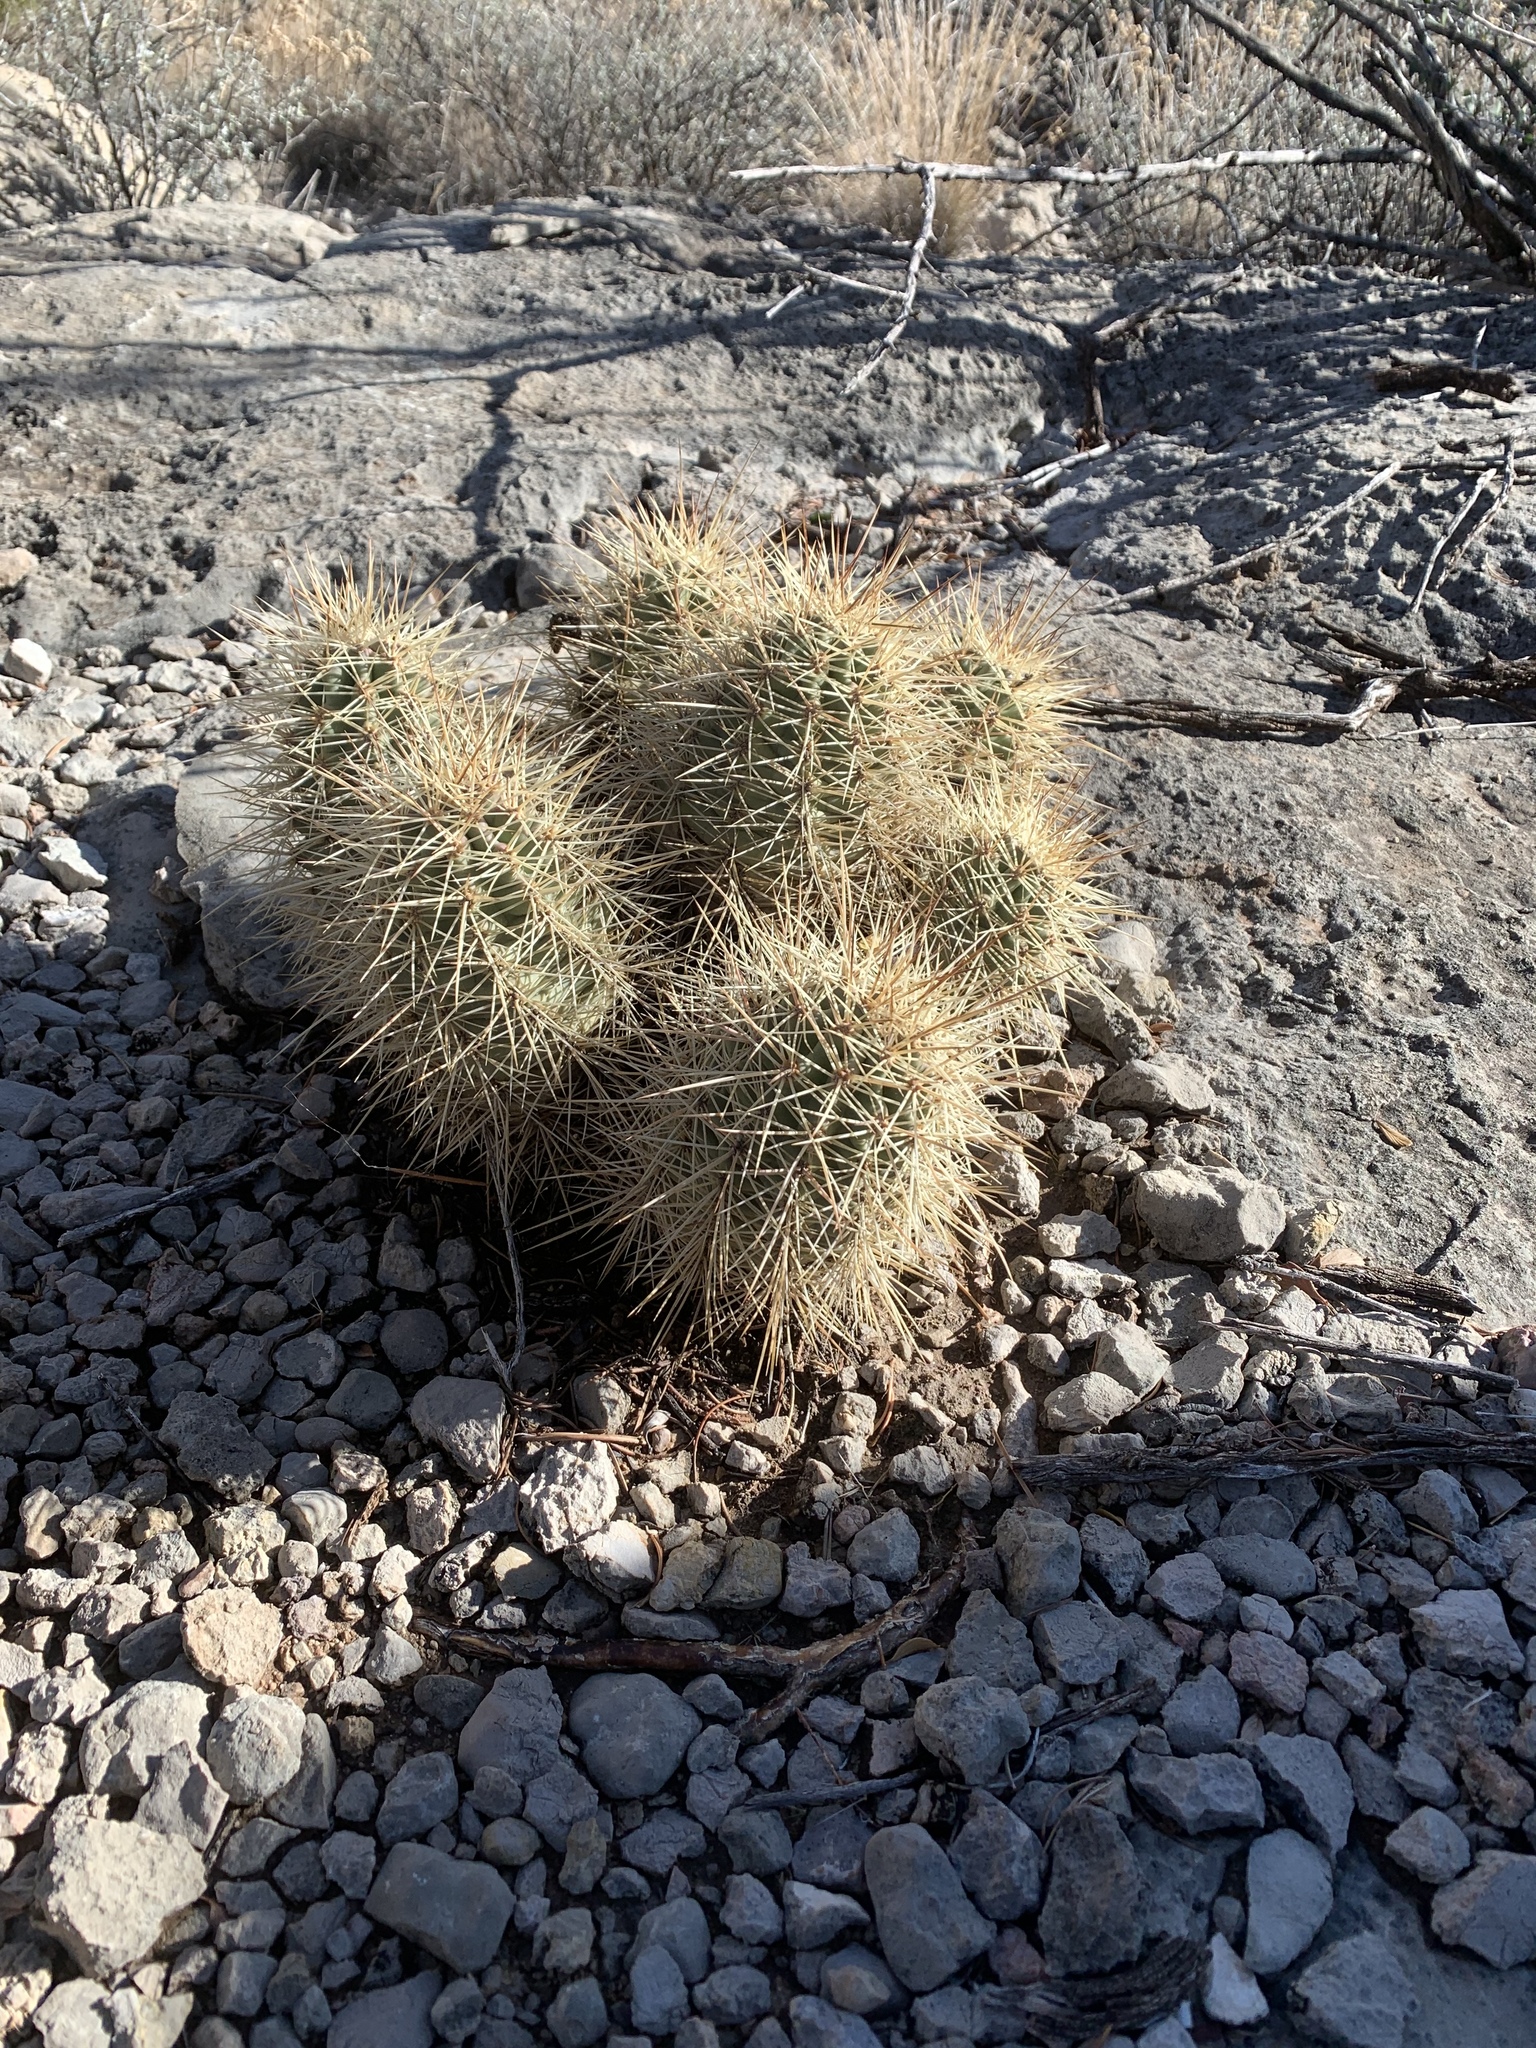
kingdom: Plantae
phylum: Tracheophyta
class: Magnoliopsida
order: Caryophyllales
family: Cactaceae
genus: Echinocereus
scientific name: Echinocereus coccineus
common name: Scarlet hedgehog cactus
